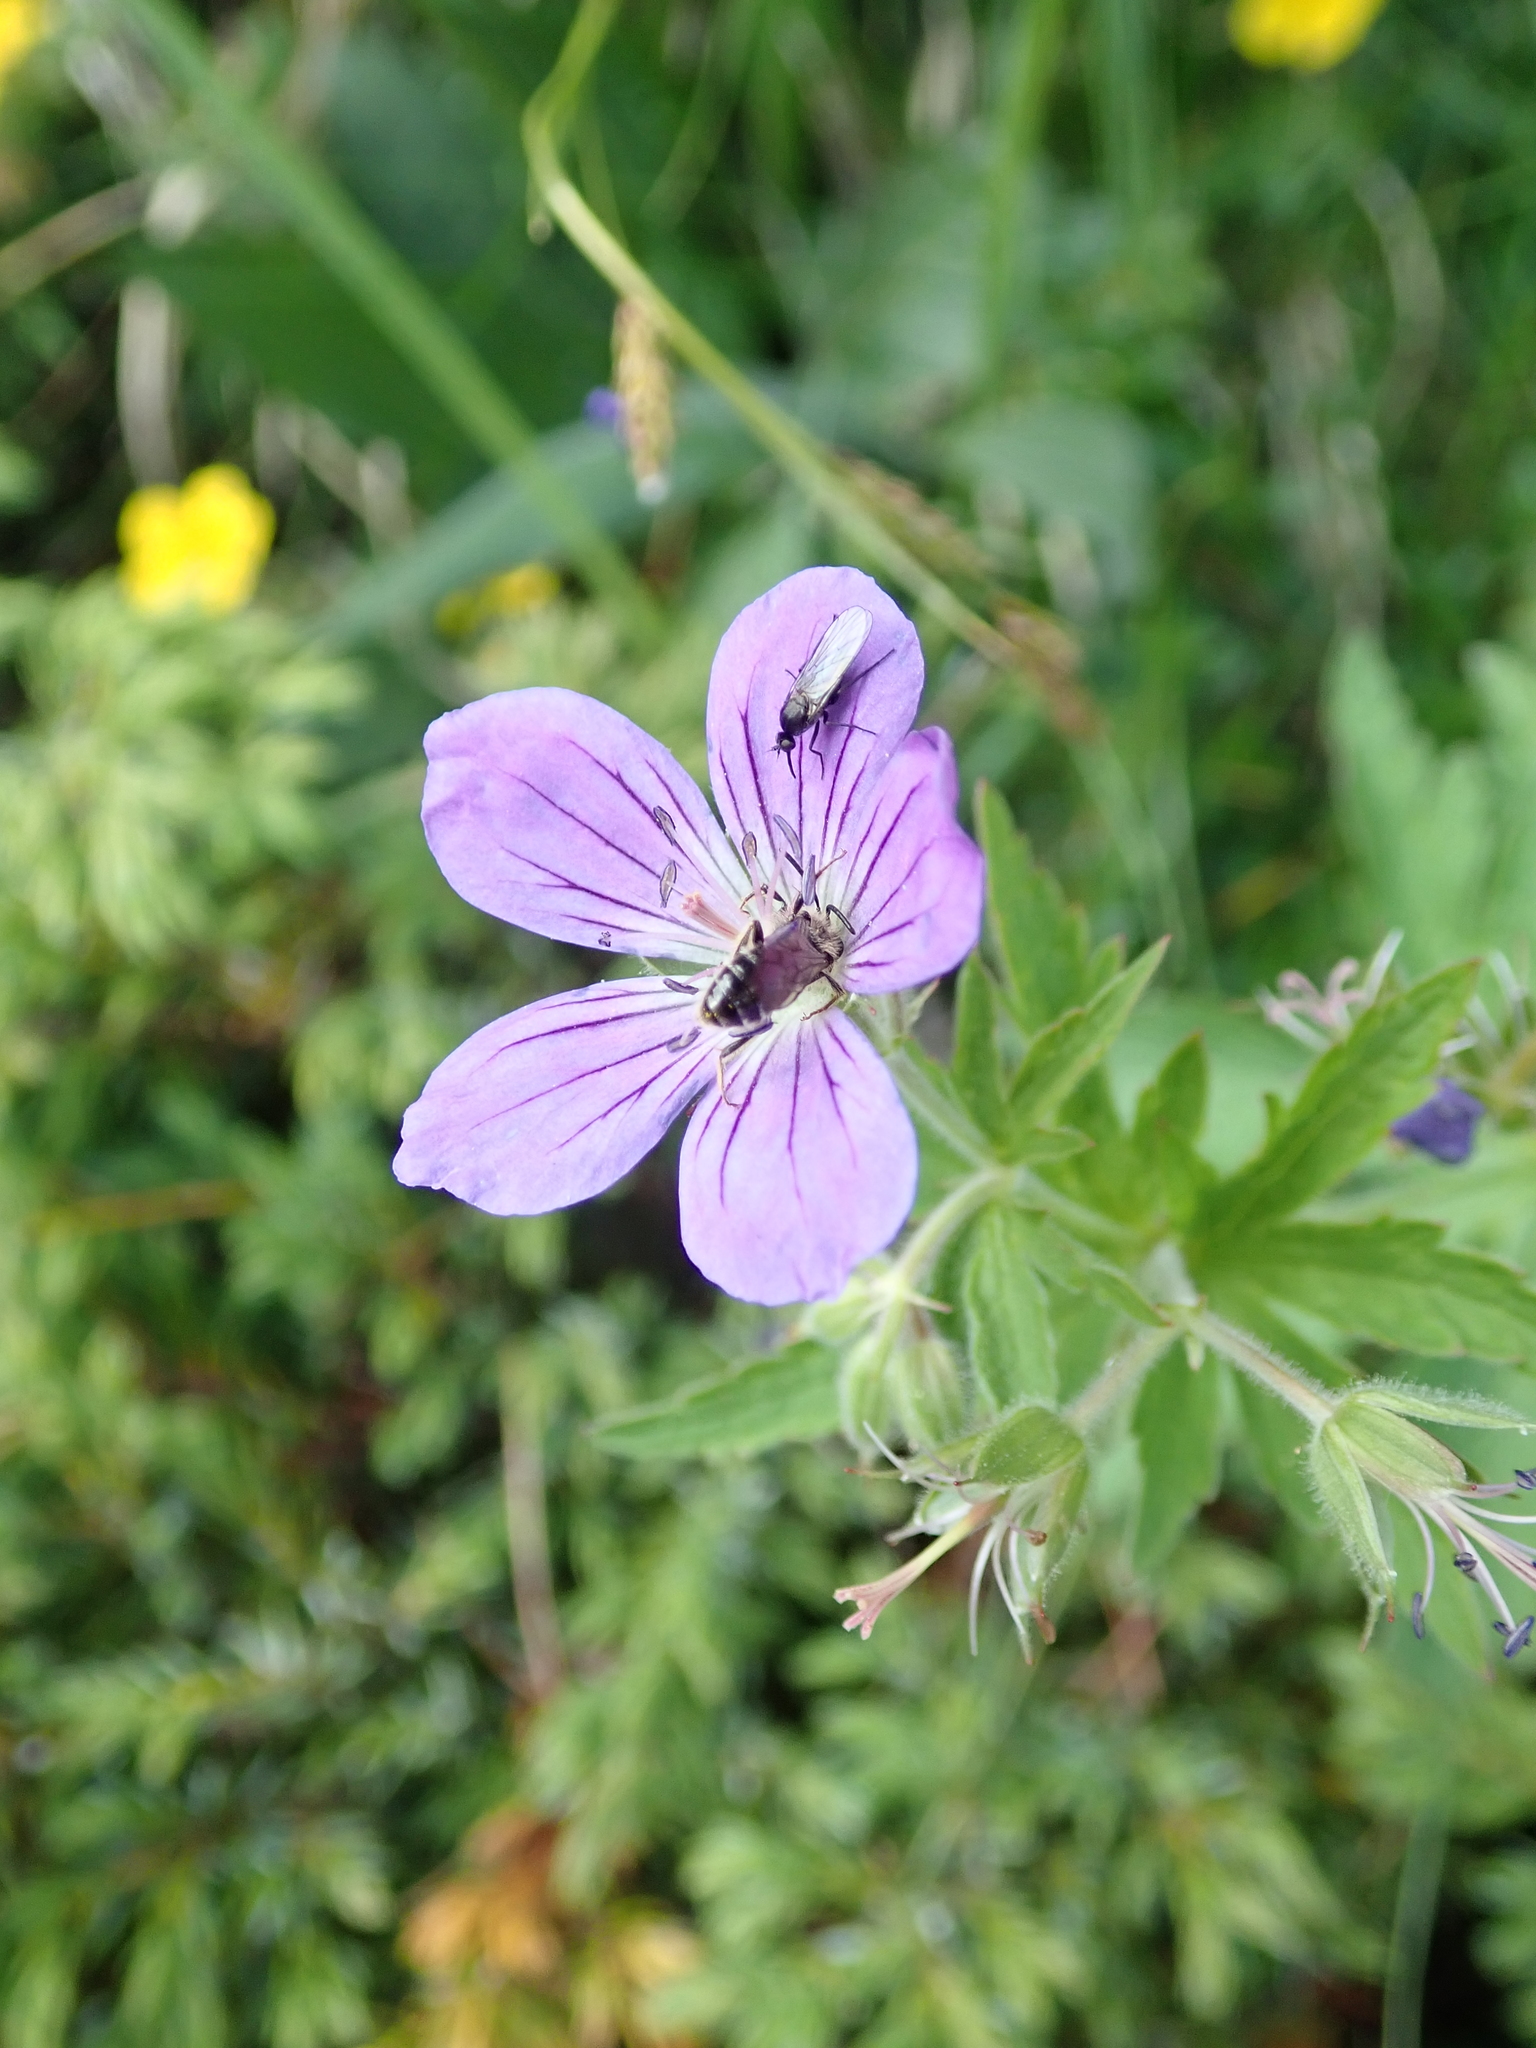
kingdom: Plantae
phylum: Tracheophyta
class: Magnoliopsida
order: Geraniales
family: Geraniaceae
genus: Geranium
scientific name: Geranium sylvaticum
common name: Wood crane's-bill
